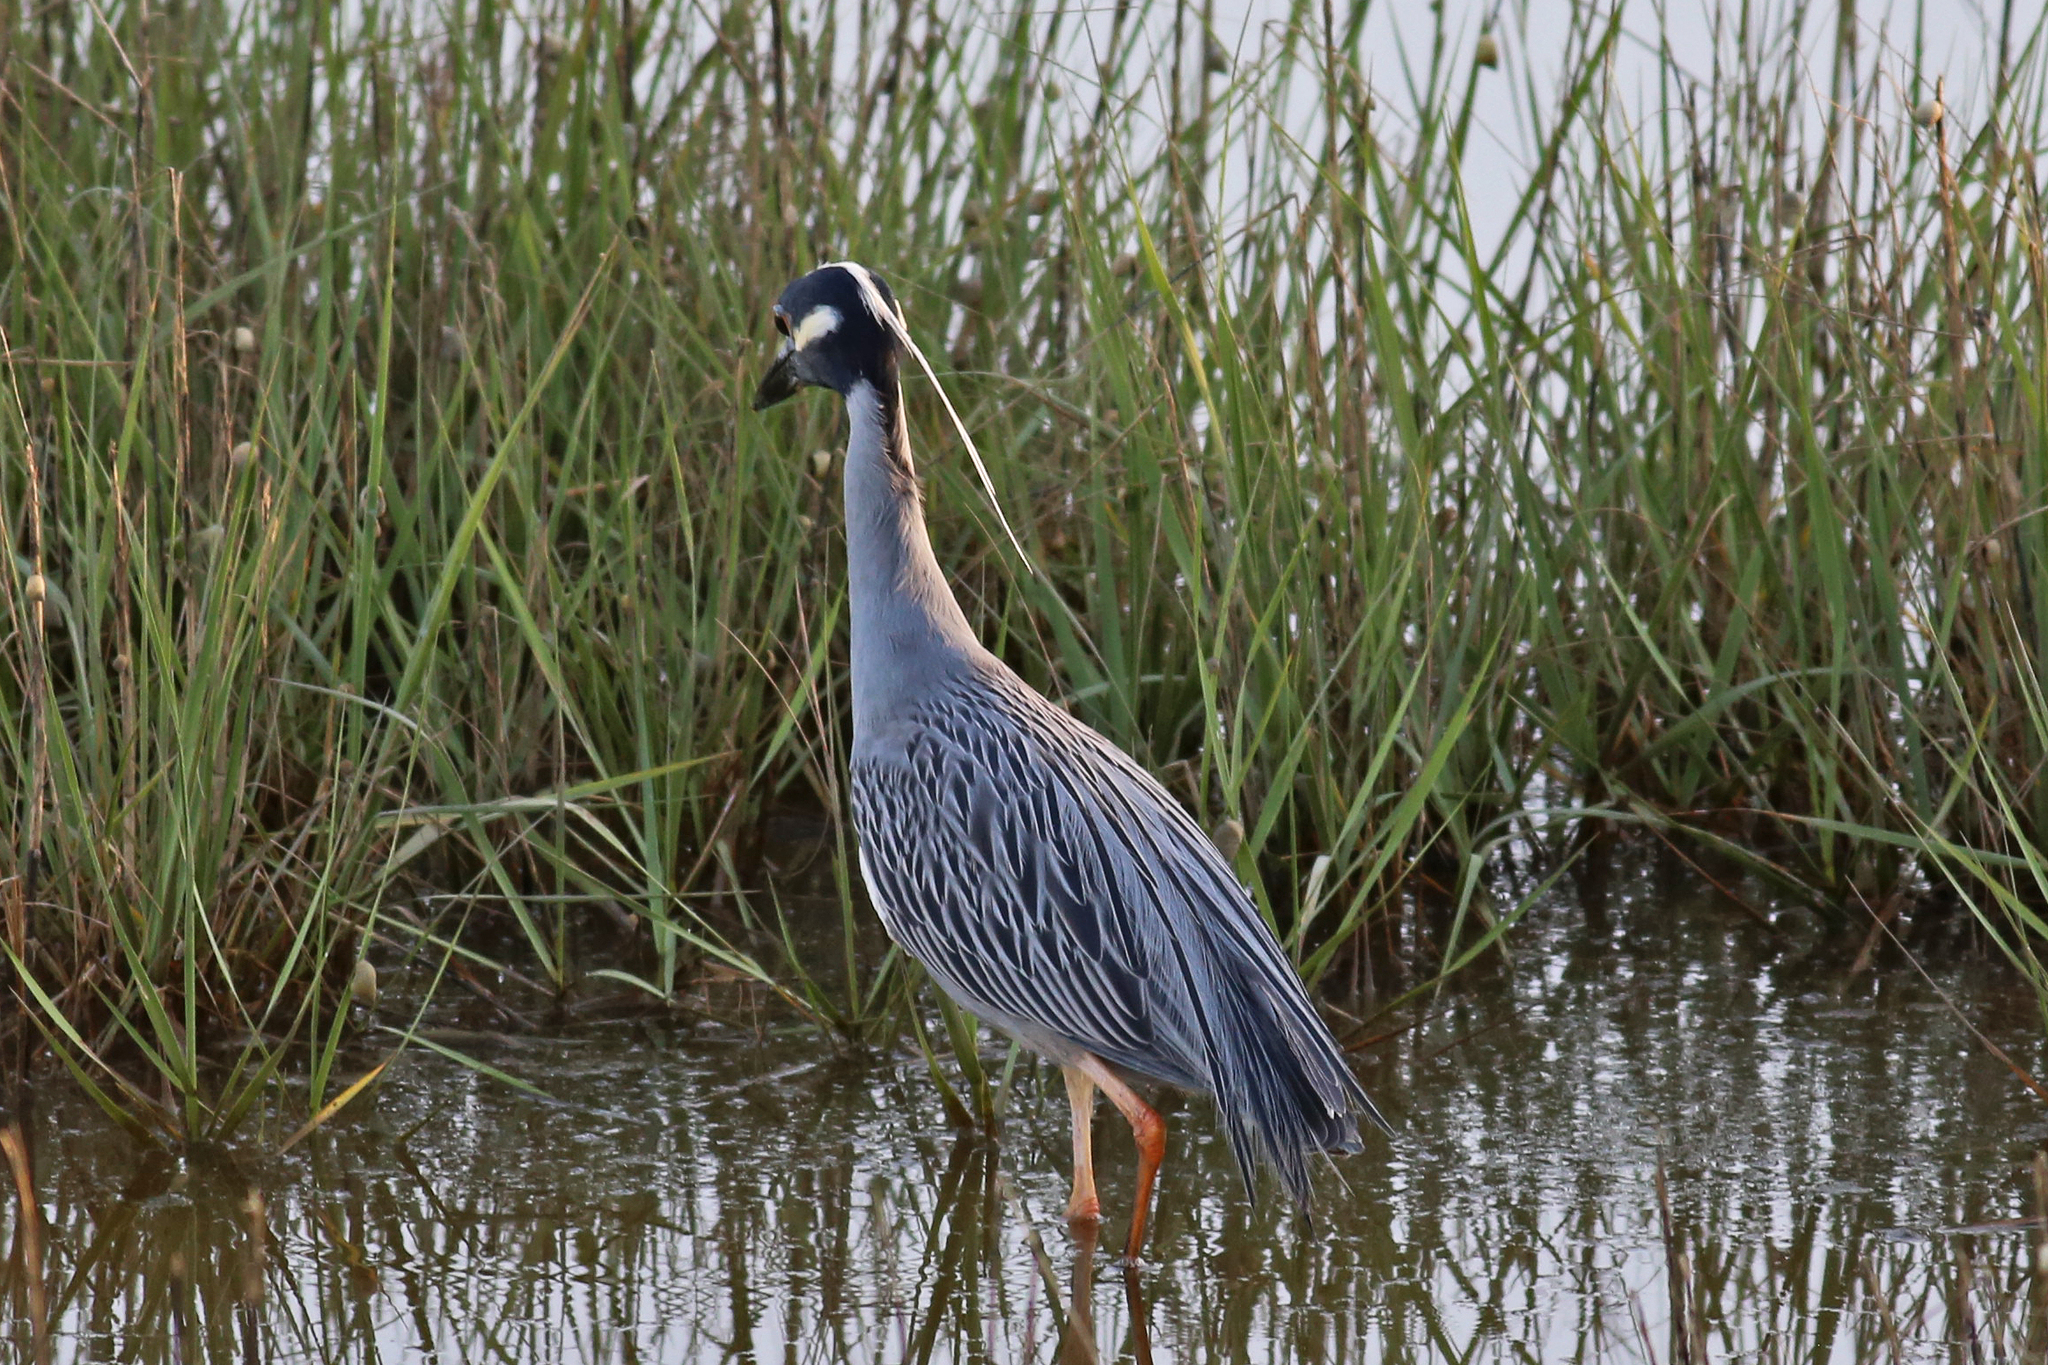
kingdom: Animalia
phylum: Chordata
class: Aves
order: Pelecaniformes
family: Ardeidae
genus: Nyctanassa
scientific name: Nyctanassa violacea
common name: Yellow-crowned night heron
